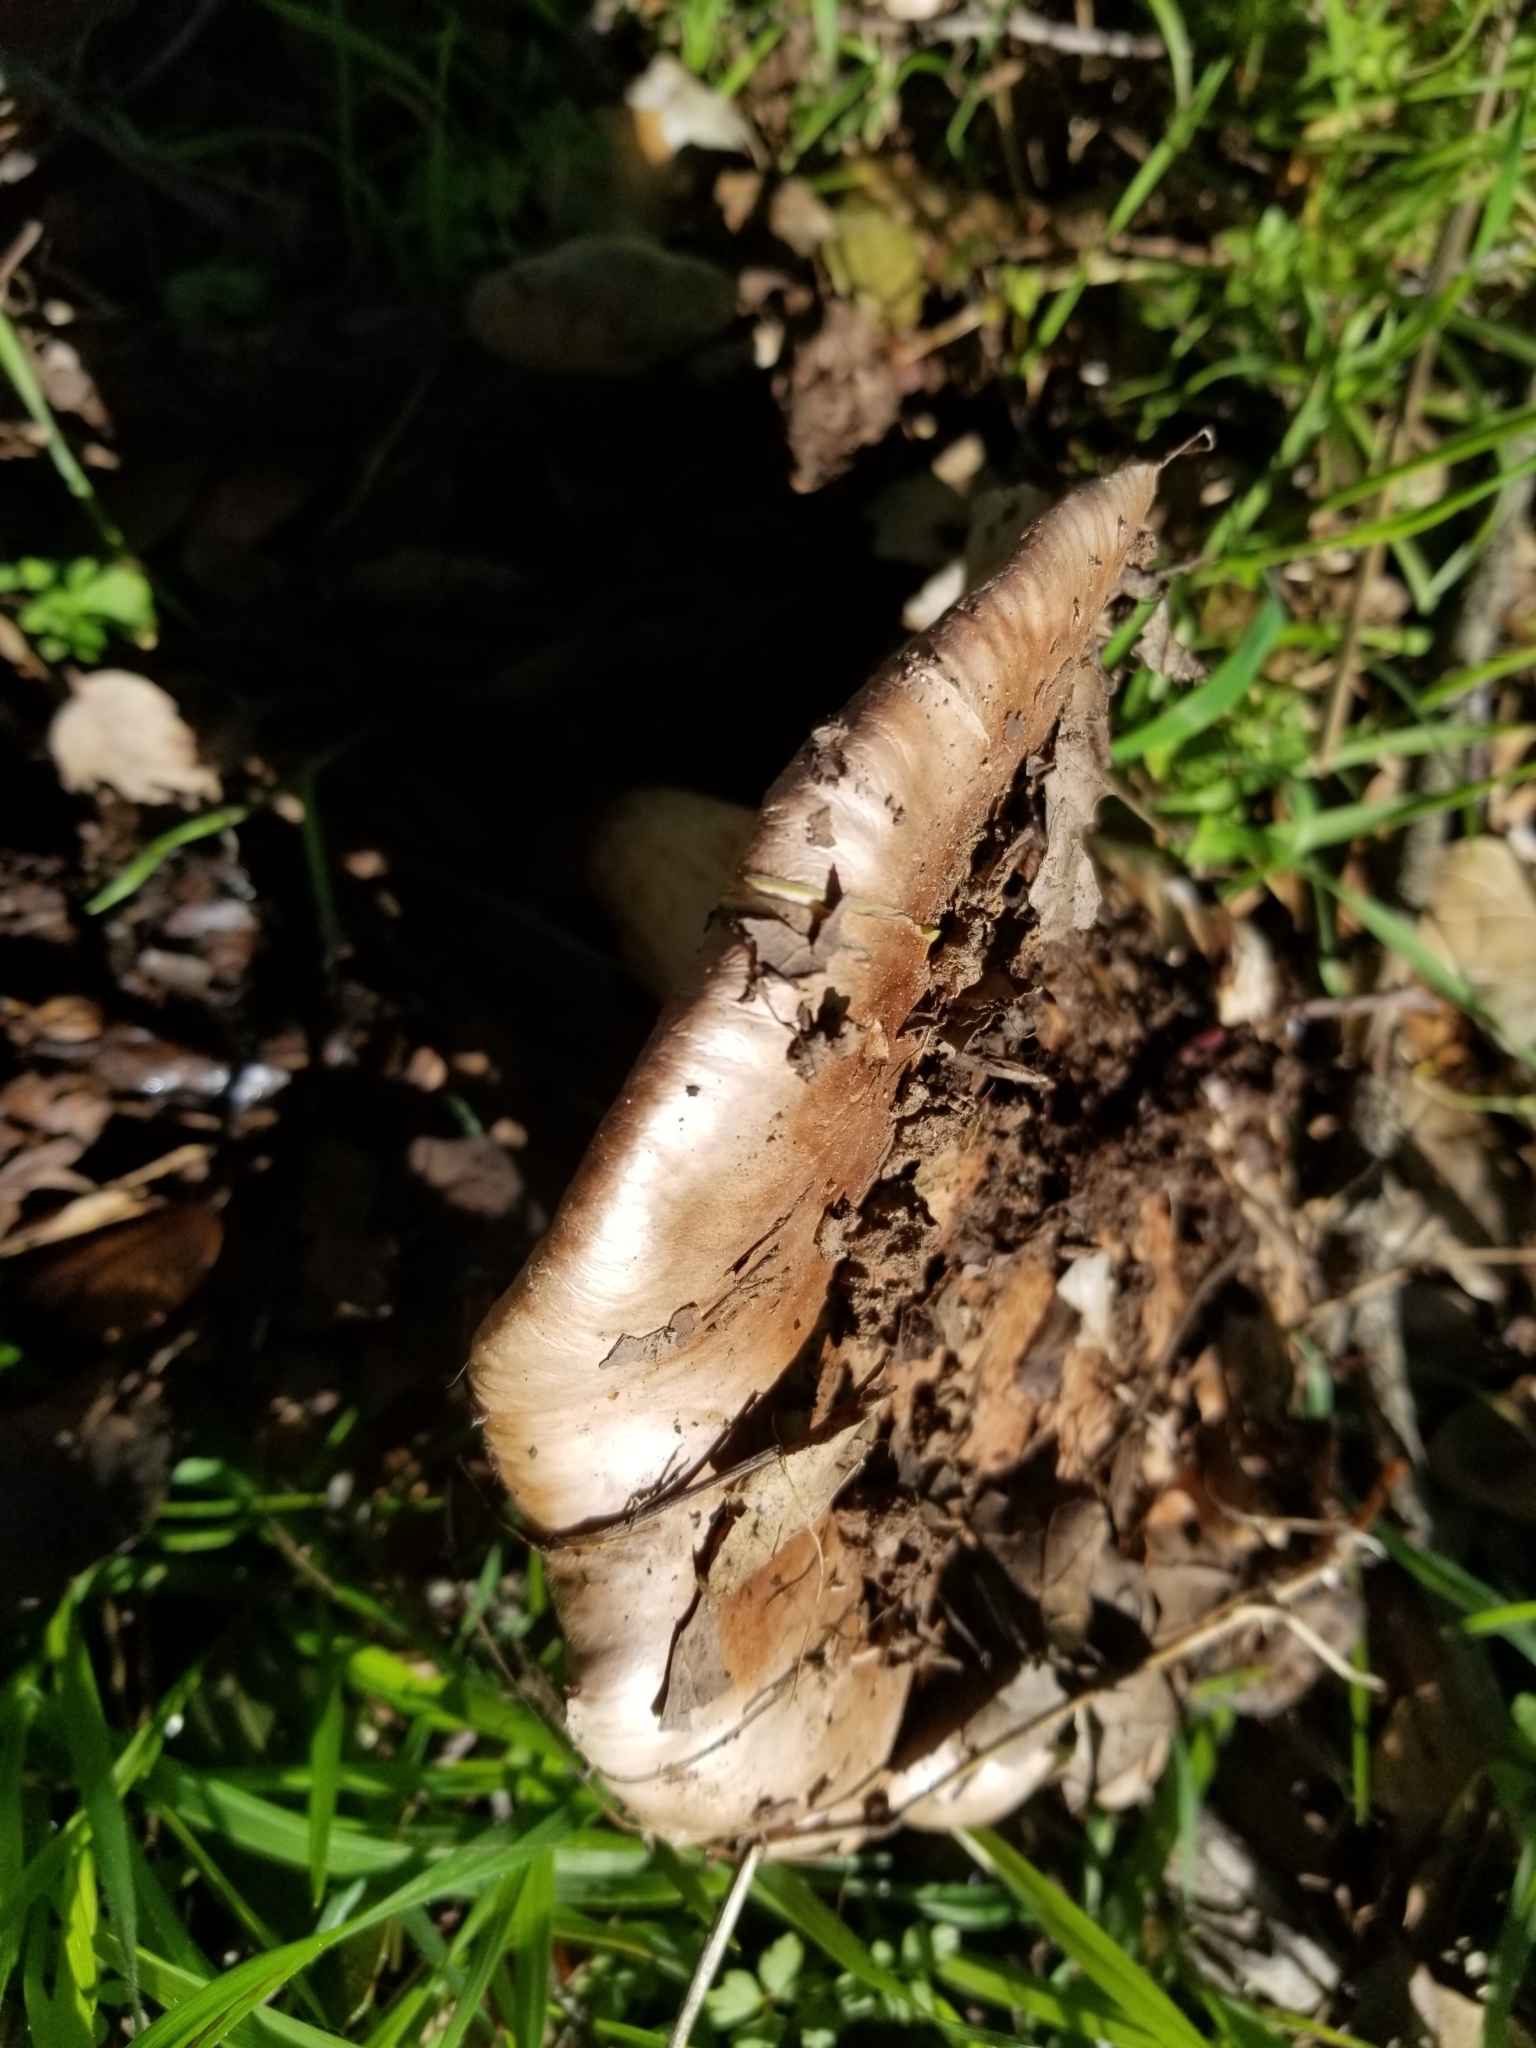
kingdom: Fungi
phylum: Basidiomycota
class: Agaricomycetes
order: Agaricales
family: Tricholomataceae
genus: Melanoleuca
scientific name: Melanoleuca dryophila
